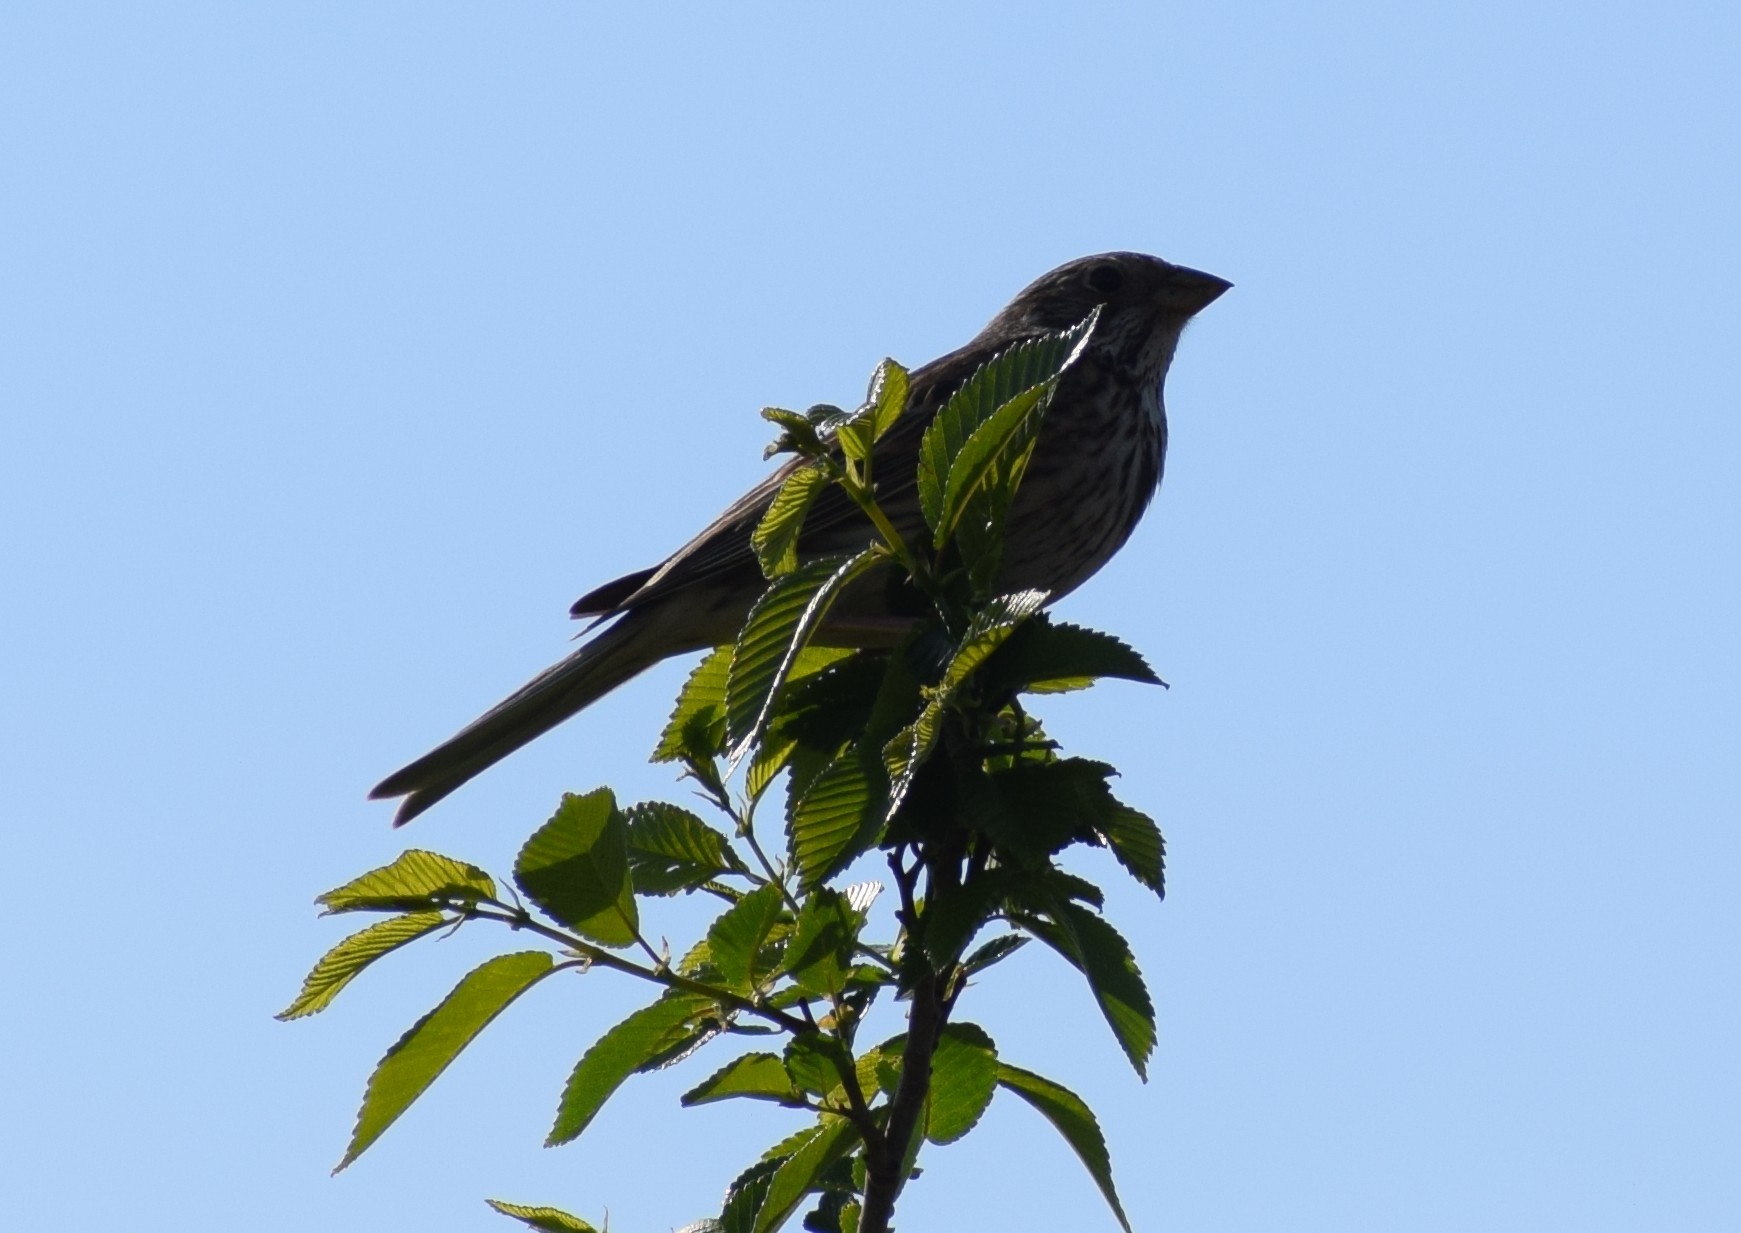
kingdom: Animalia
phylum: Chordata
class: Aves
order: Passeriformes
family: Emberizidae
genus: Emberiza
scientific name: Emberiza calandra
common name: Corn bunting
